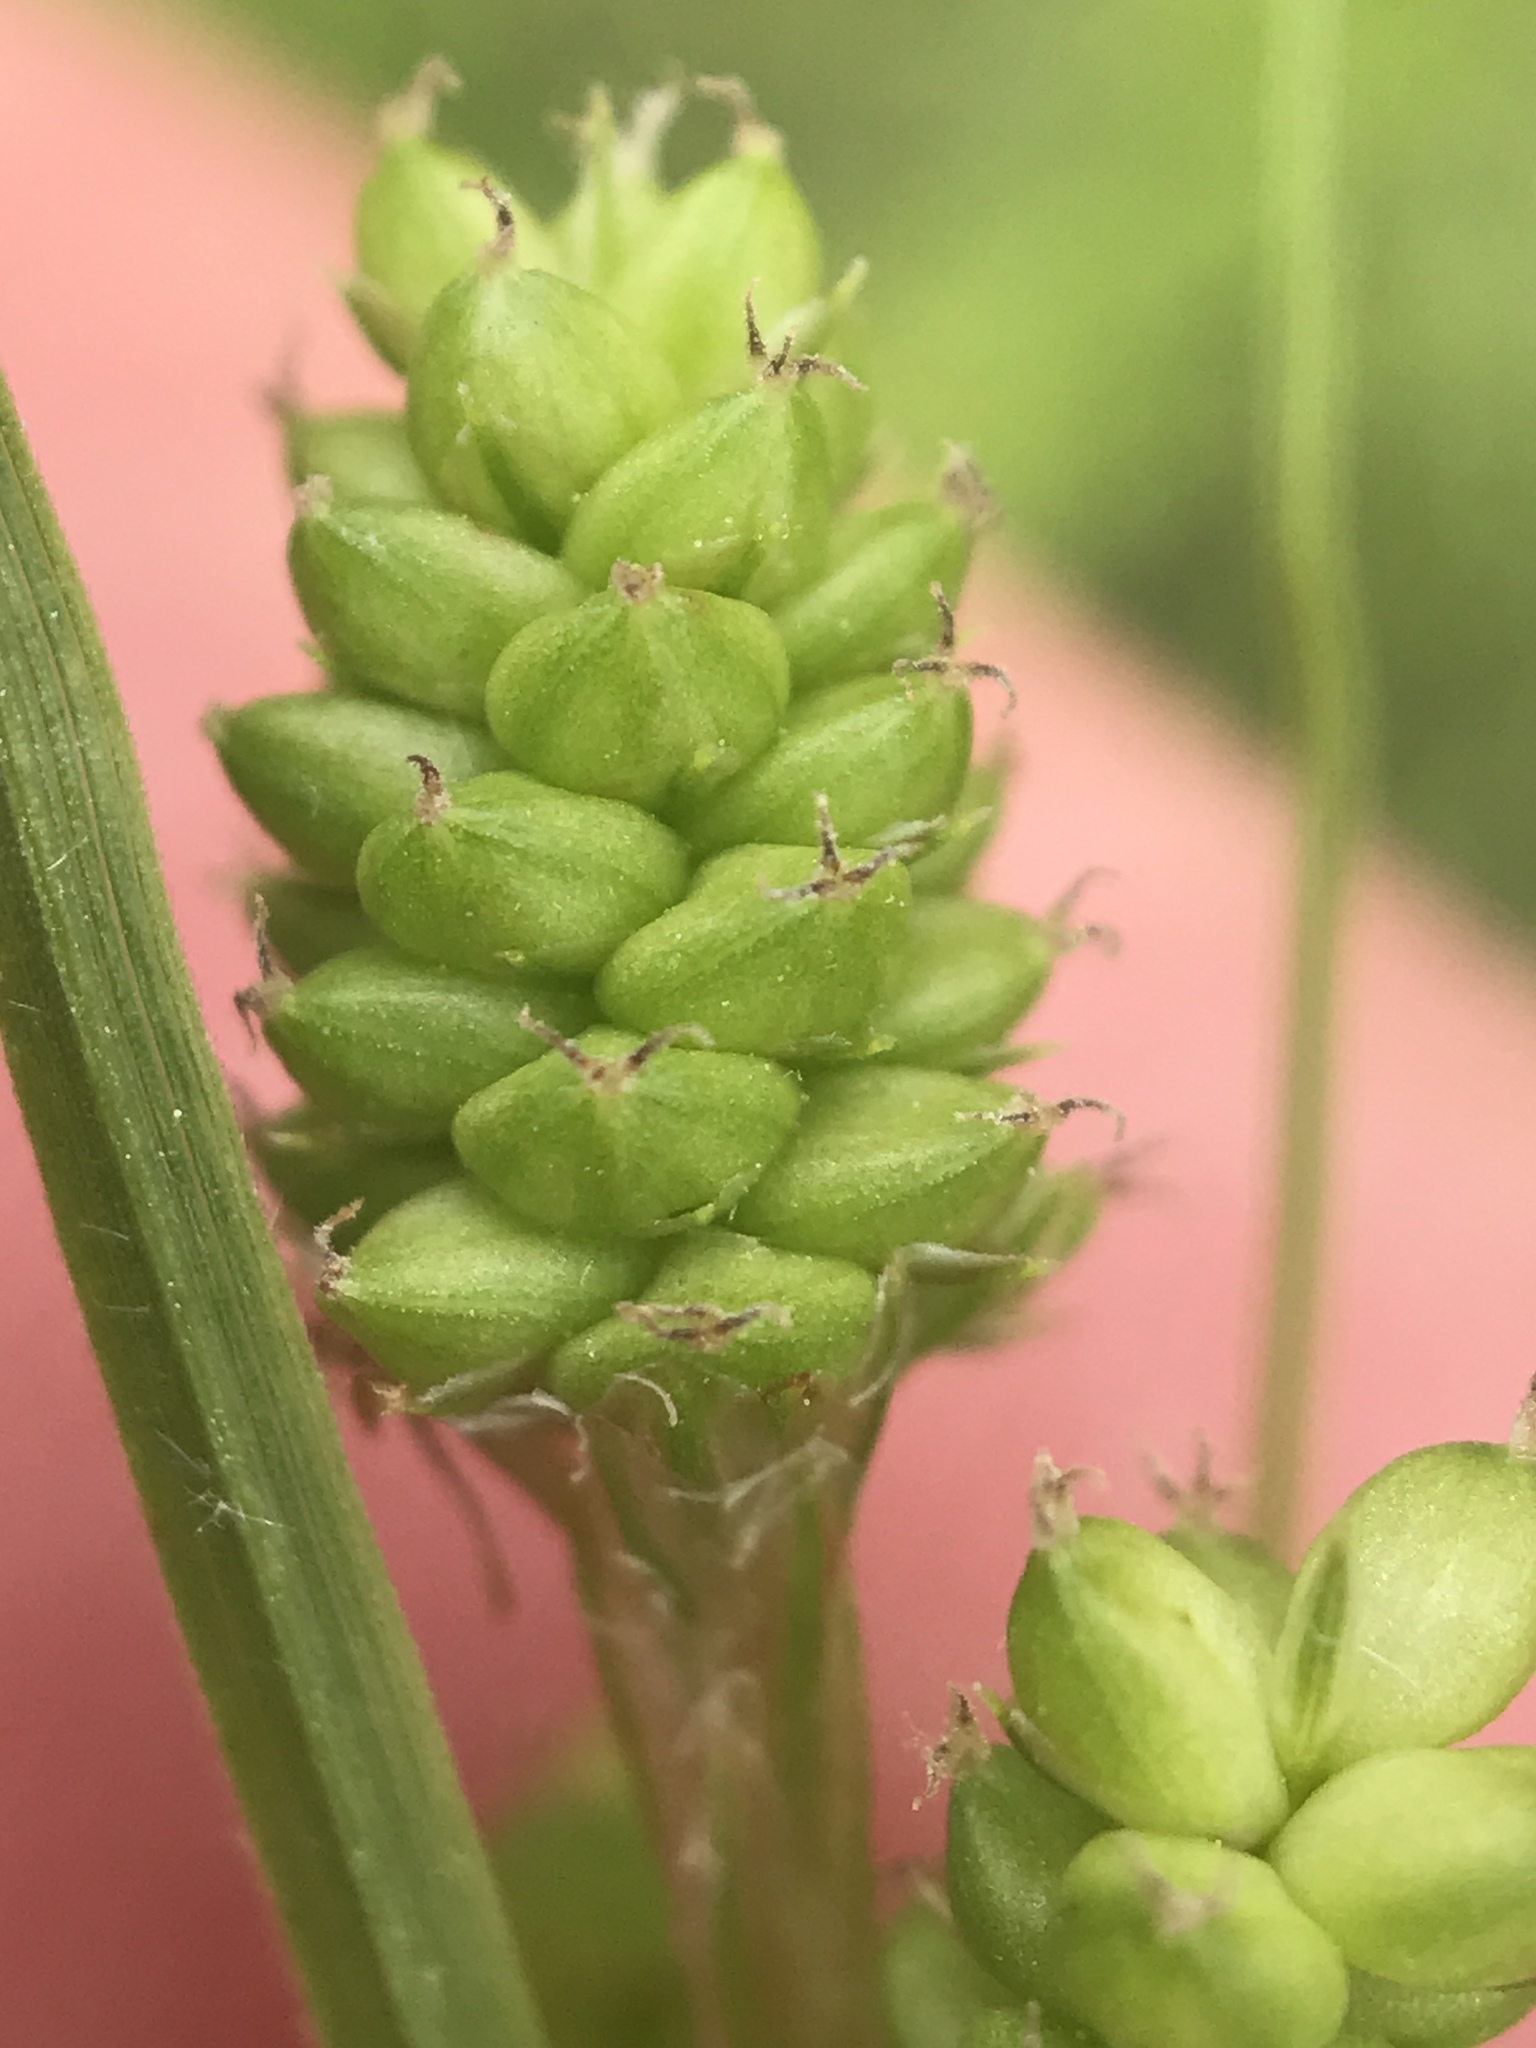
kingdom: Plantae
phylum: Tracheophyta
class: Liliopsida
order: Poales
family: Cyperaceae
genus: Carex
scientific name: Carex hirsutella
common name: Fuzzy wuzzy sedge
